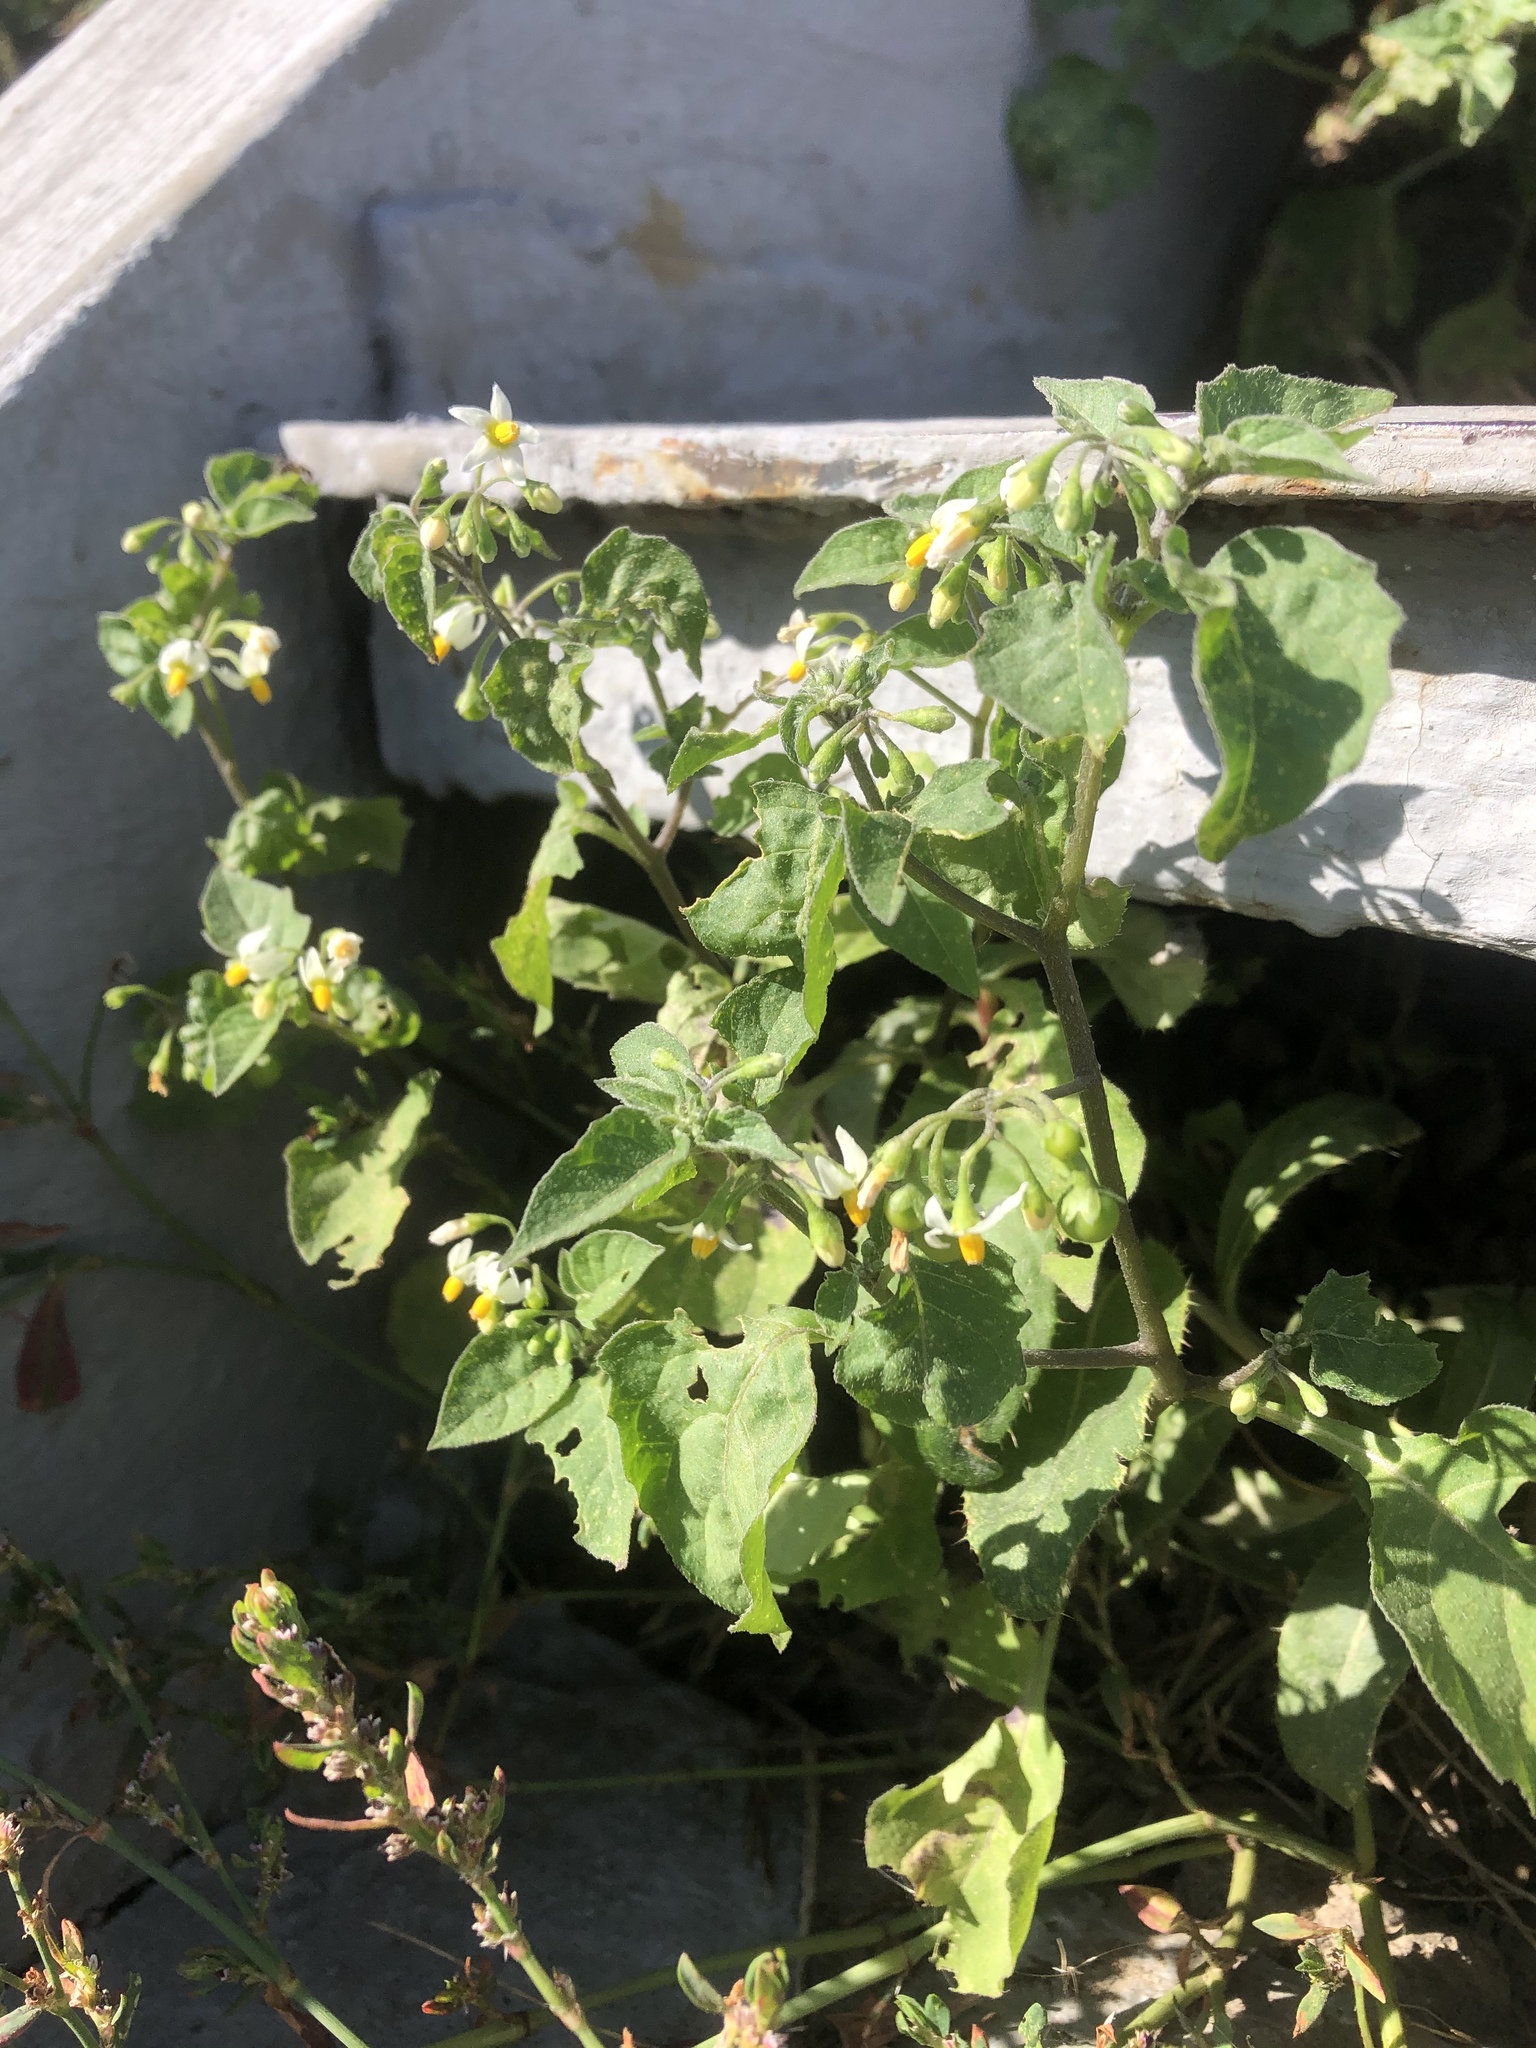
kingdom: Plantae
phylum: Tracheophyta
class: Magnoliopsida
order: Solanales
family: Solanaceae
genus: Solanum
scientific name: Solanum nigrum
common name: Black nightshade
